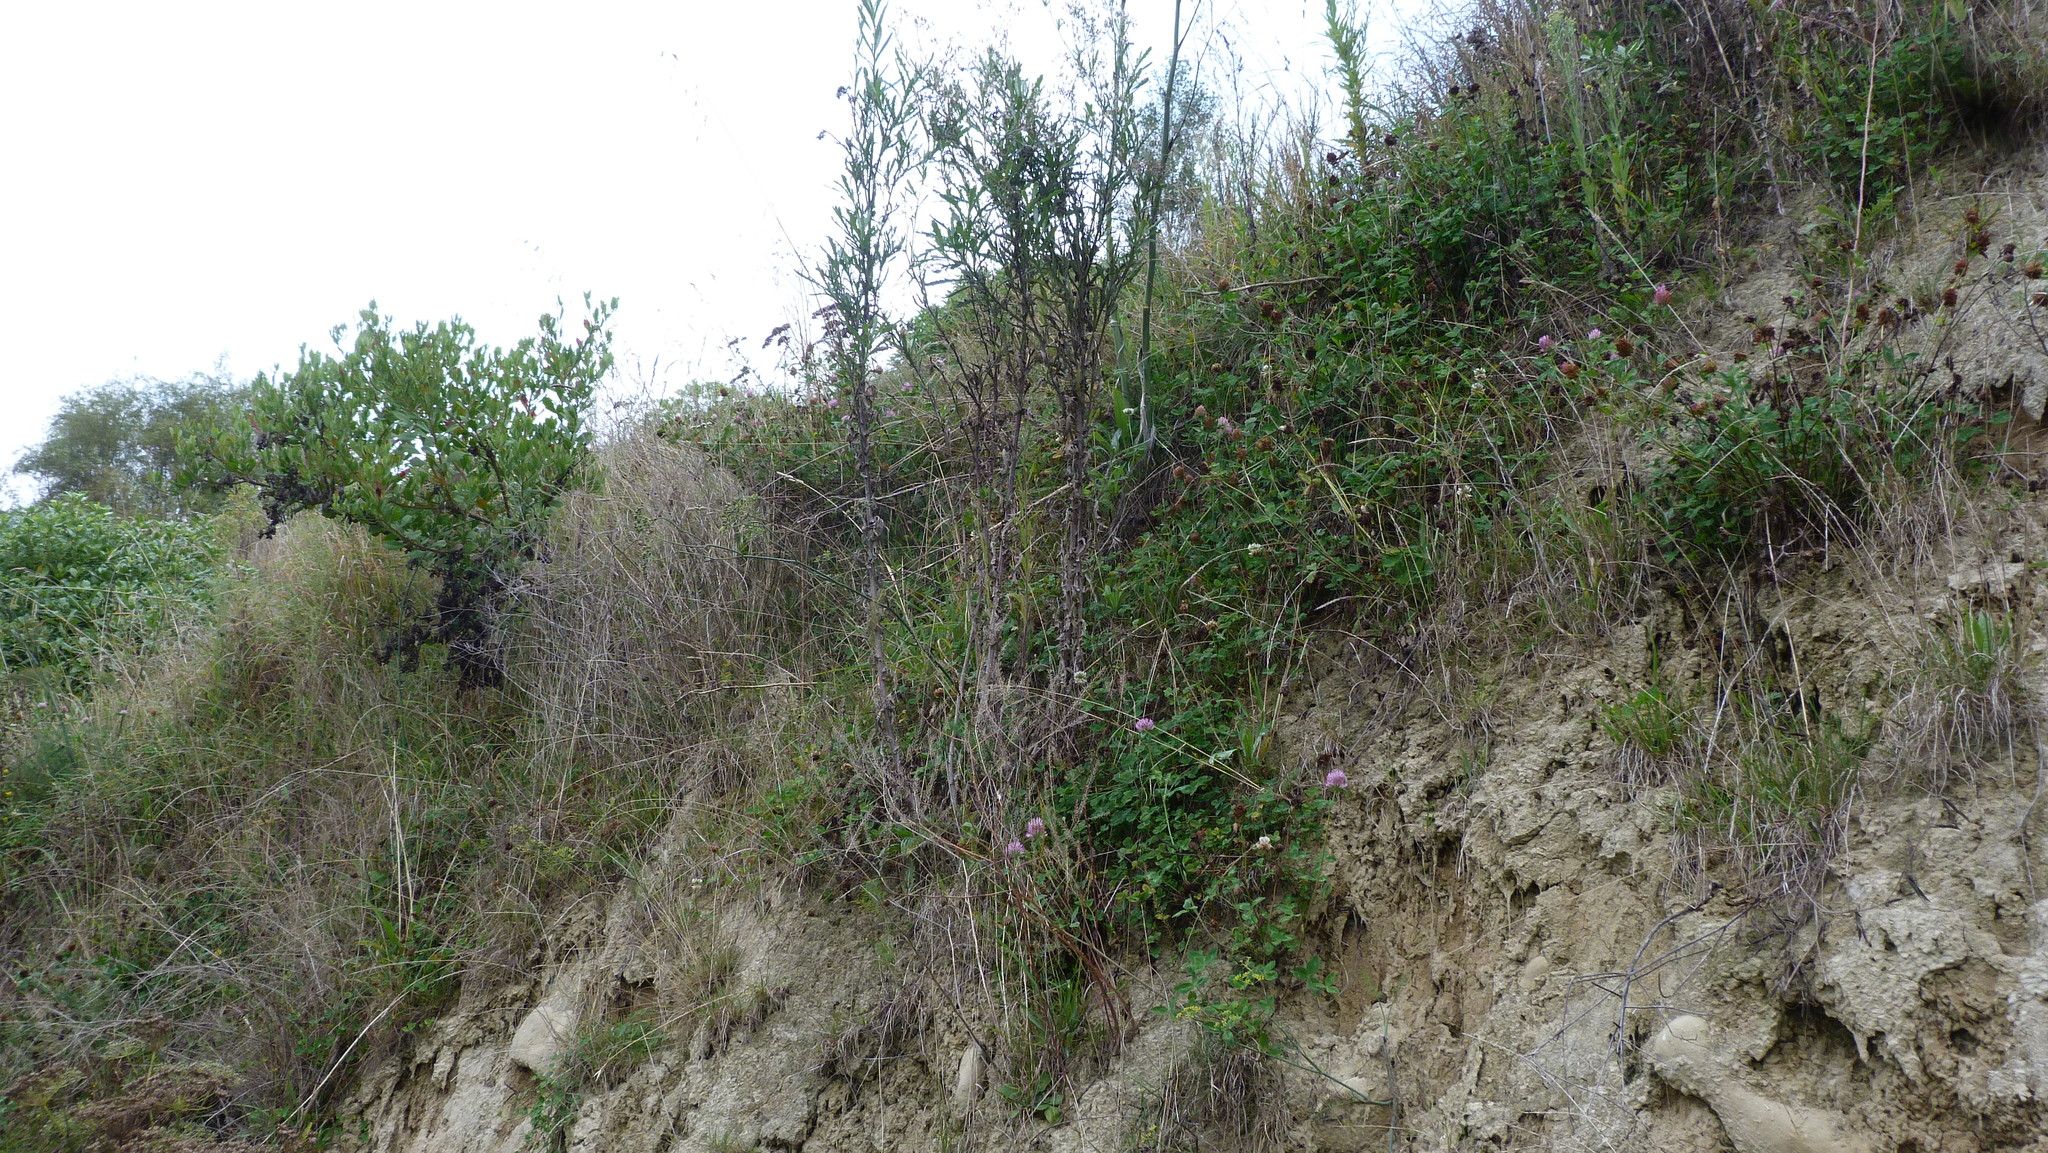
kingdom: Plantae
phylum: Tracheophyta
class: Magnoliopsida
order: Asterales
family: Asteraceae
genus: Senecio
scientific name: Senecio glomeratus
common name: Cutleaf burnweed
